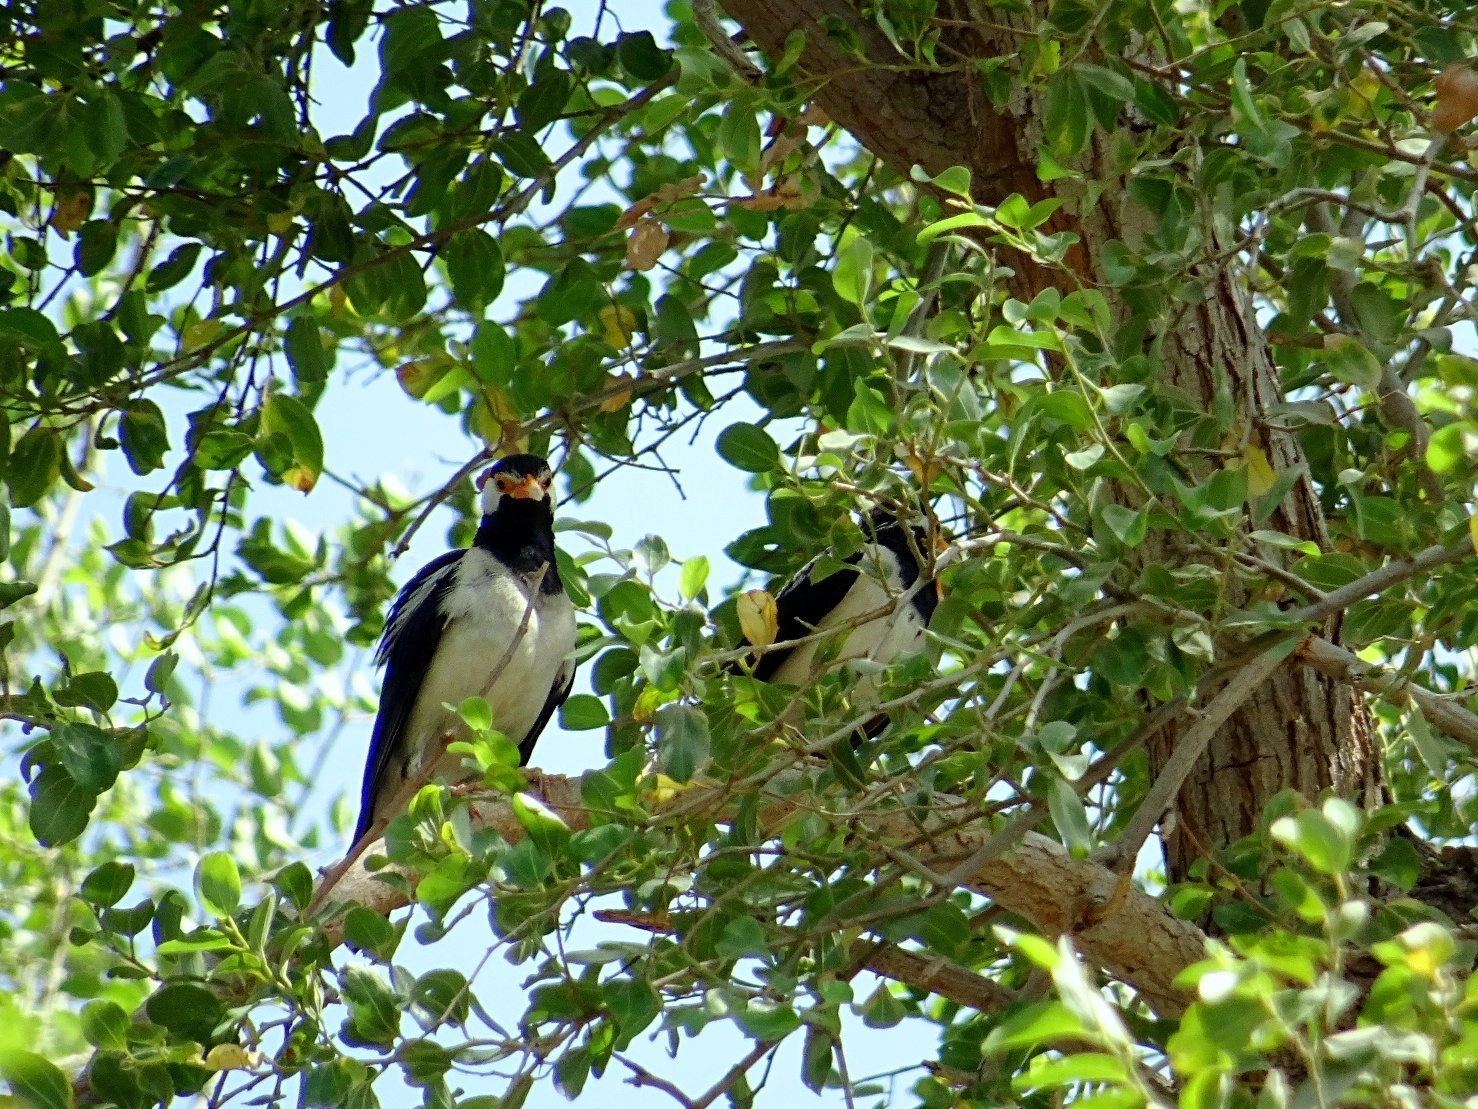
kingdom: Animalia
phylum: Chordata
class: Aves
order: Passeriformes
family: Sturnidae
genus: Gracupica
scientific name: Gracupica contra
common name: Pied myna
